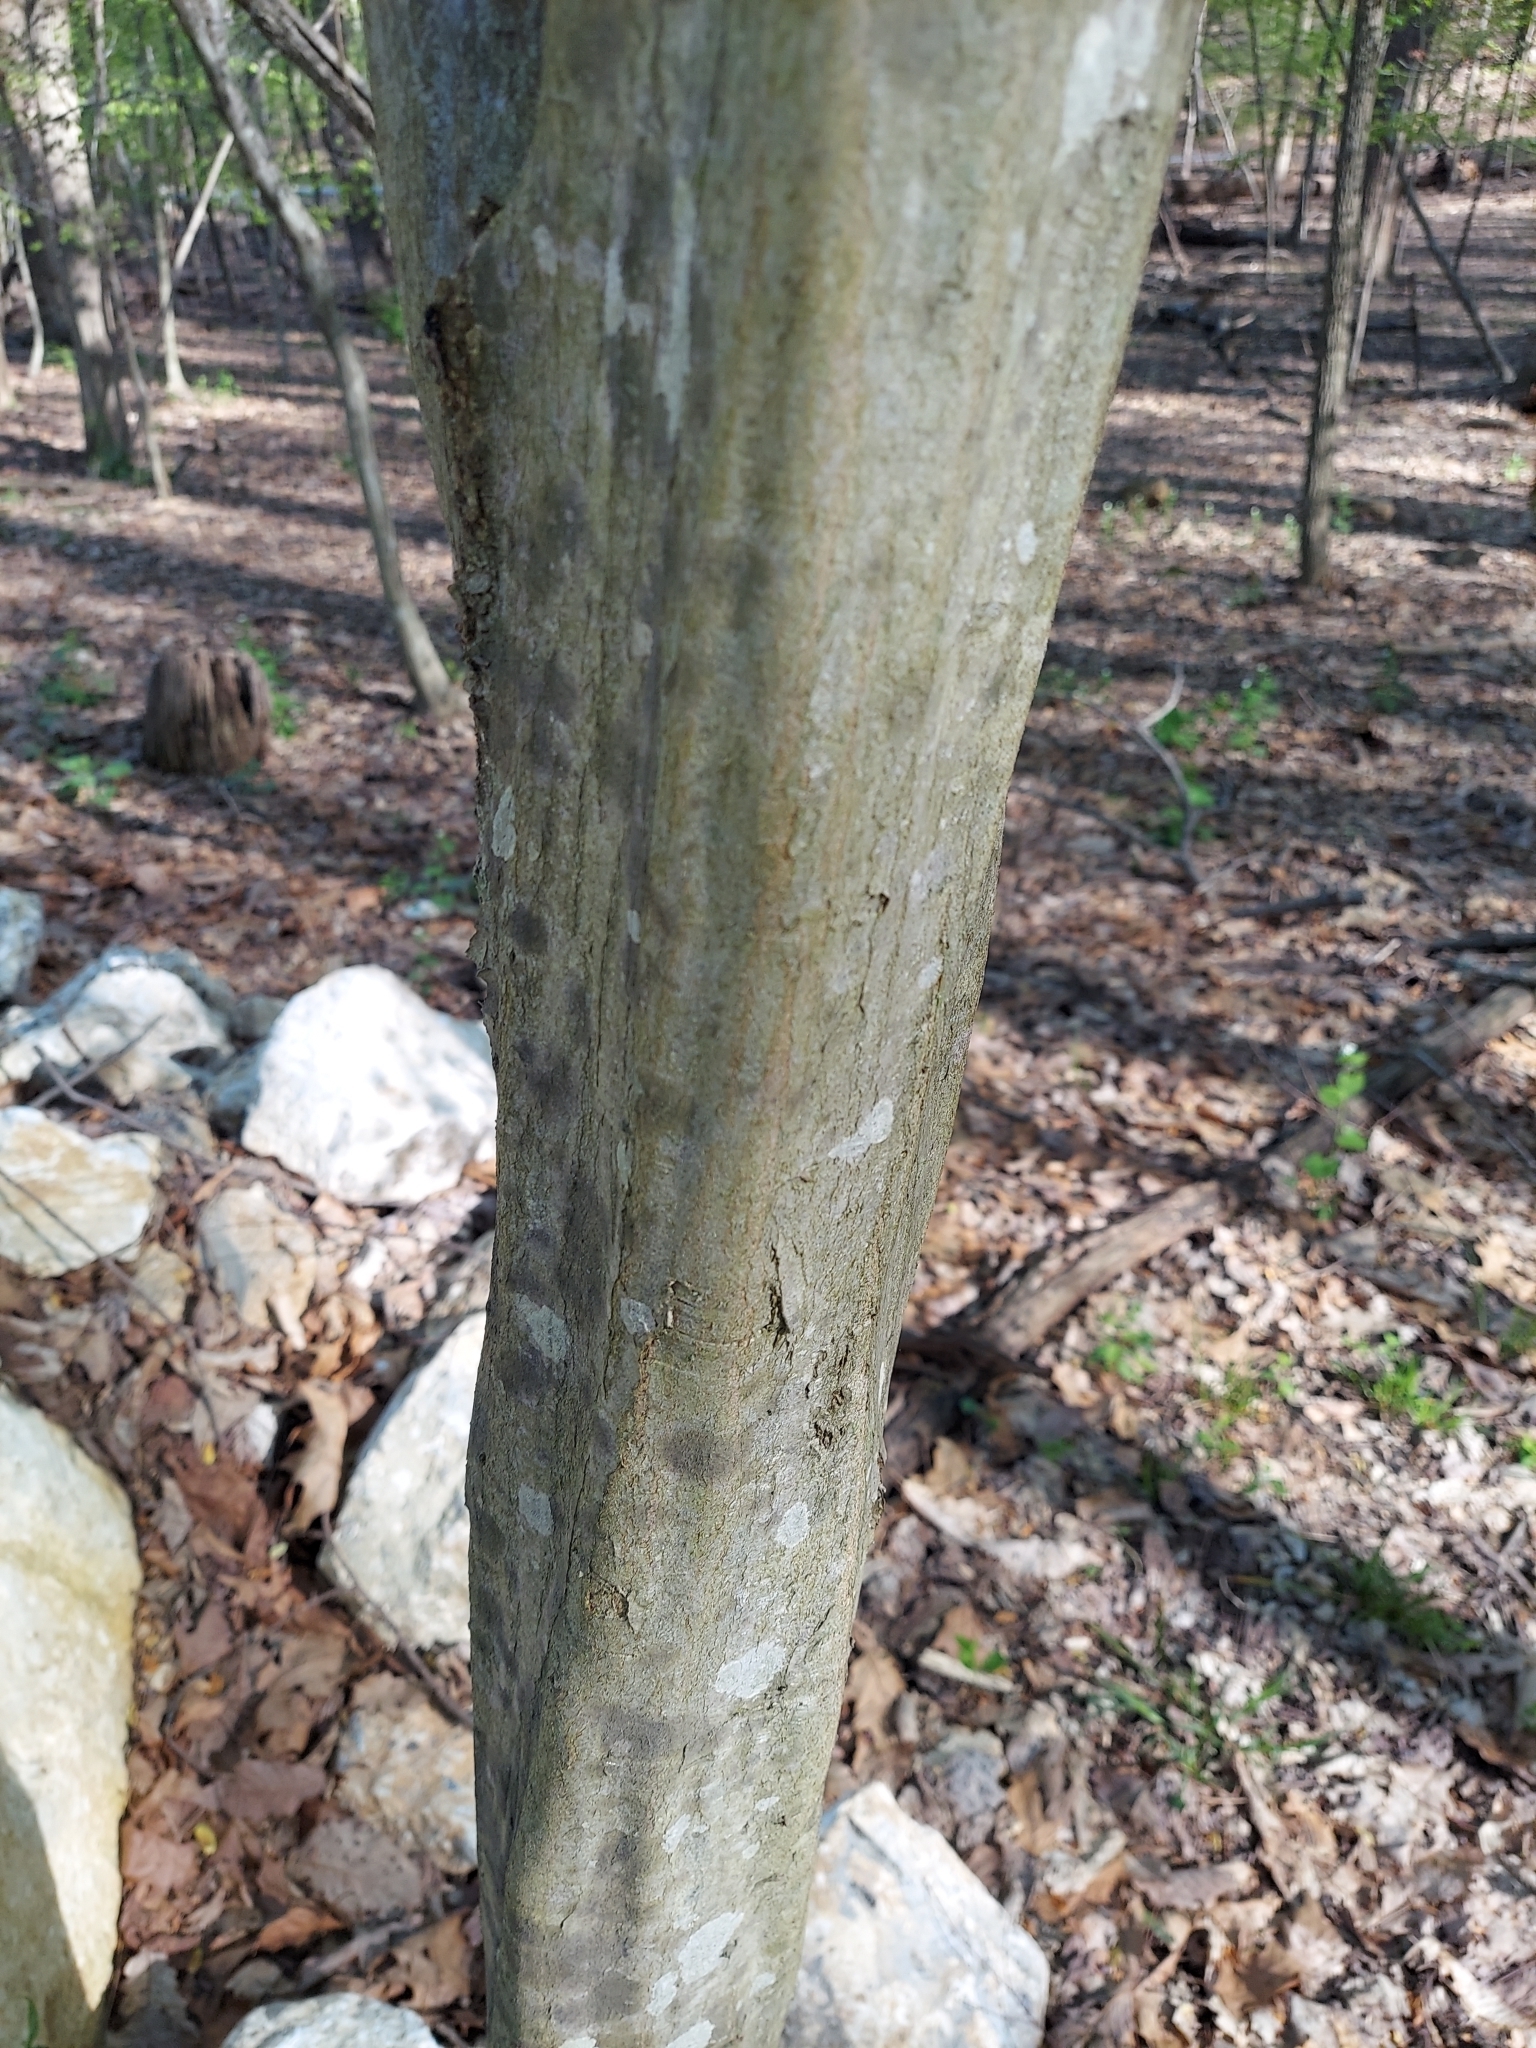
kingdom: Plantae
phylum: Tracheophyta
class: Magnoliopsida
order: Fagales
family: Betulaceae
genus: Carpinus
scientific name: Carpinus caroliniana
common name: American hornbeam
